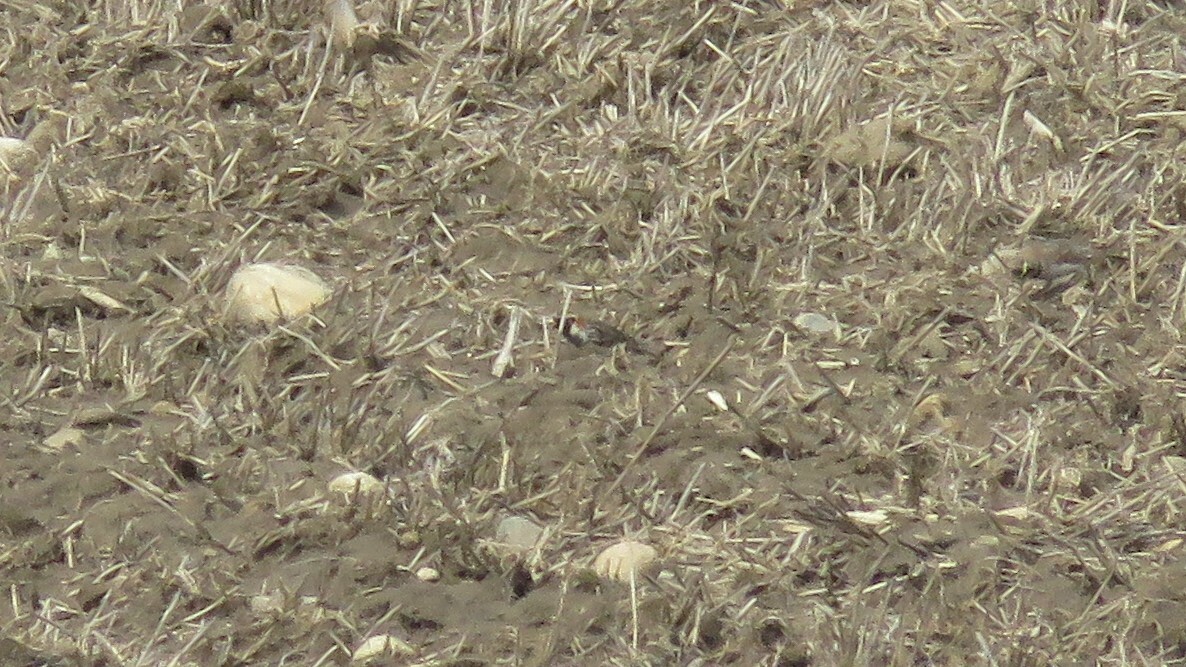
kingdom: Animalia
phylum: Chordata
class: Aves
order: Passeriformes
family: Calcariidae
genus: Calcarius
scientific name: Calcarius lapponicus
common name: Lapland longspur
